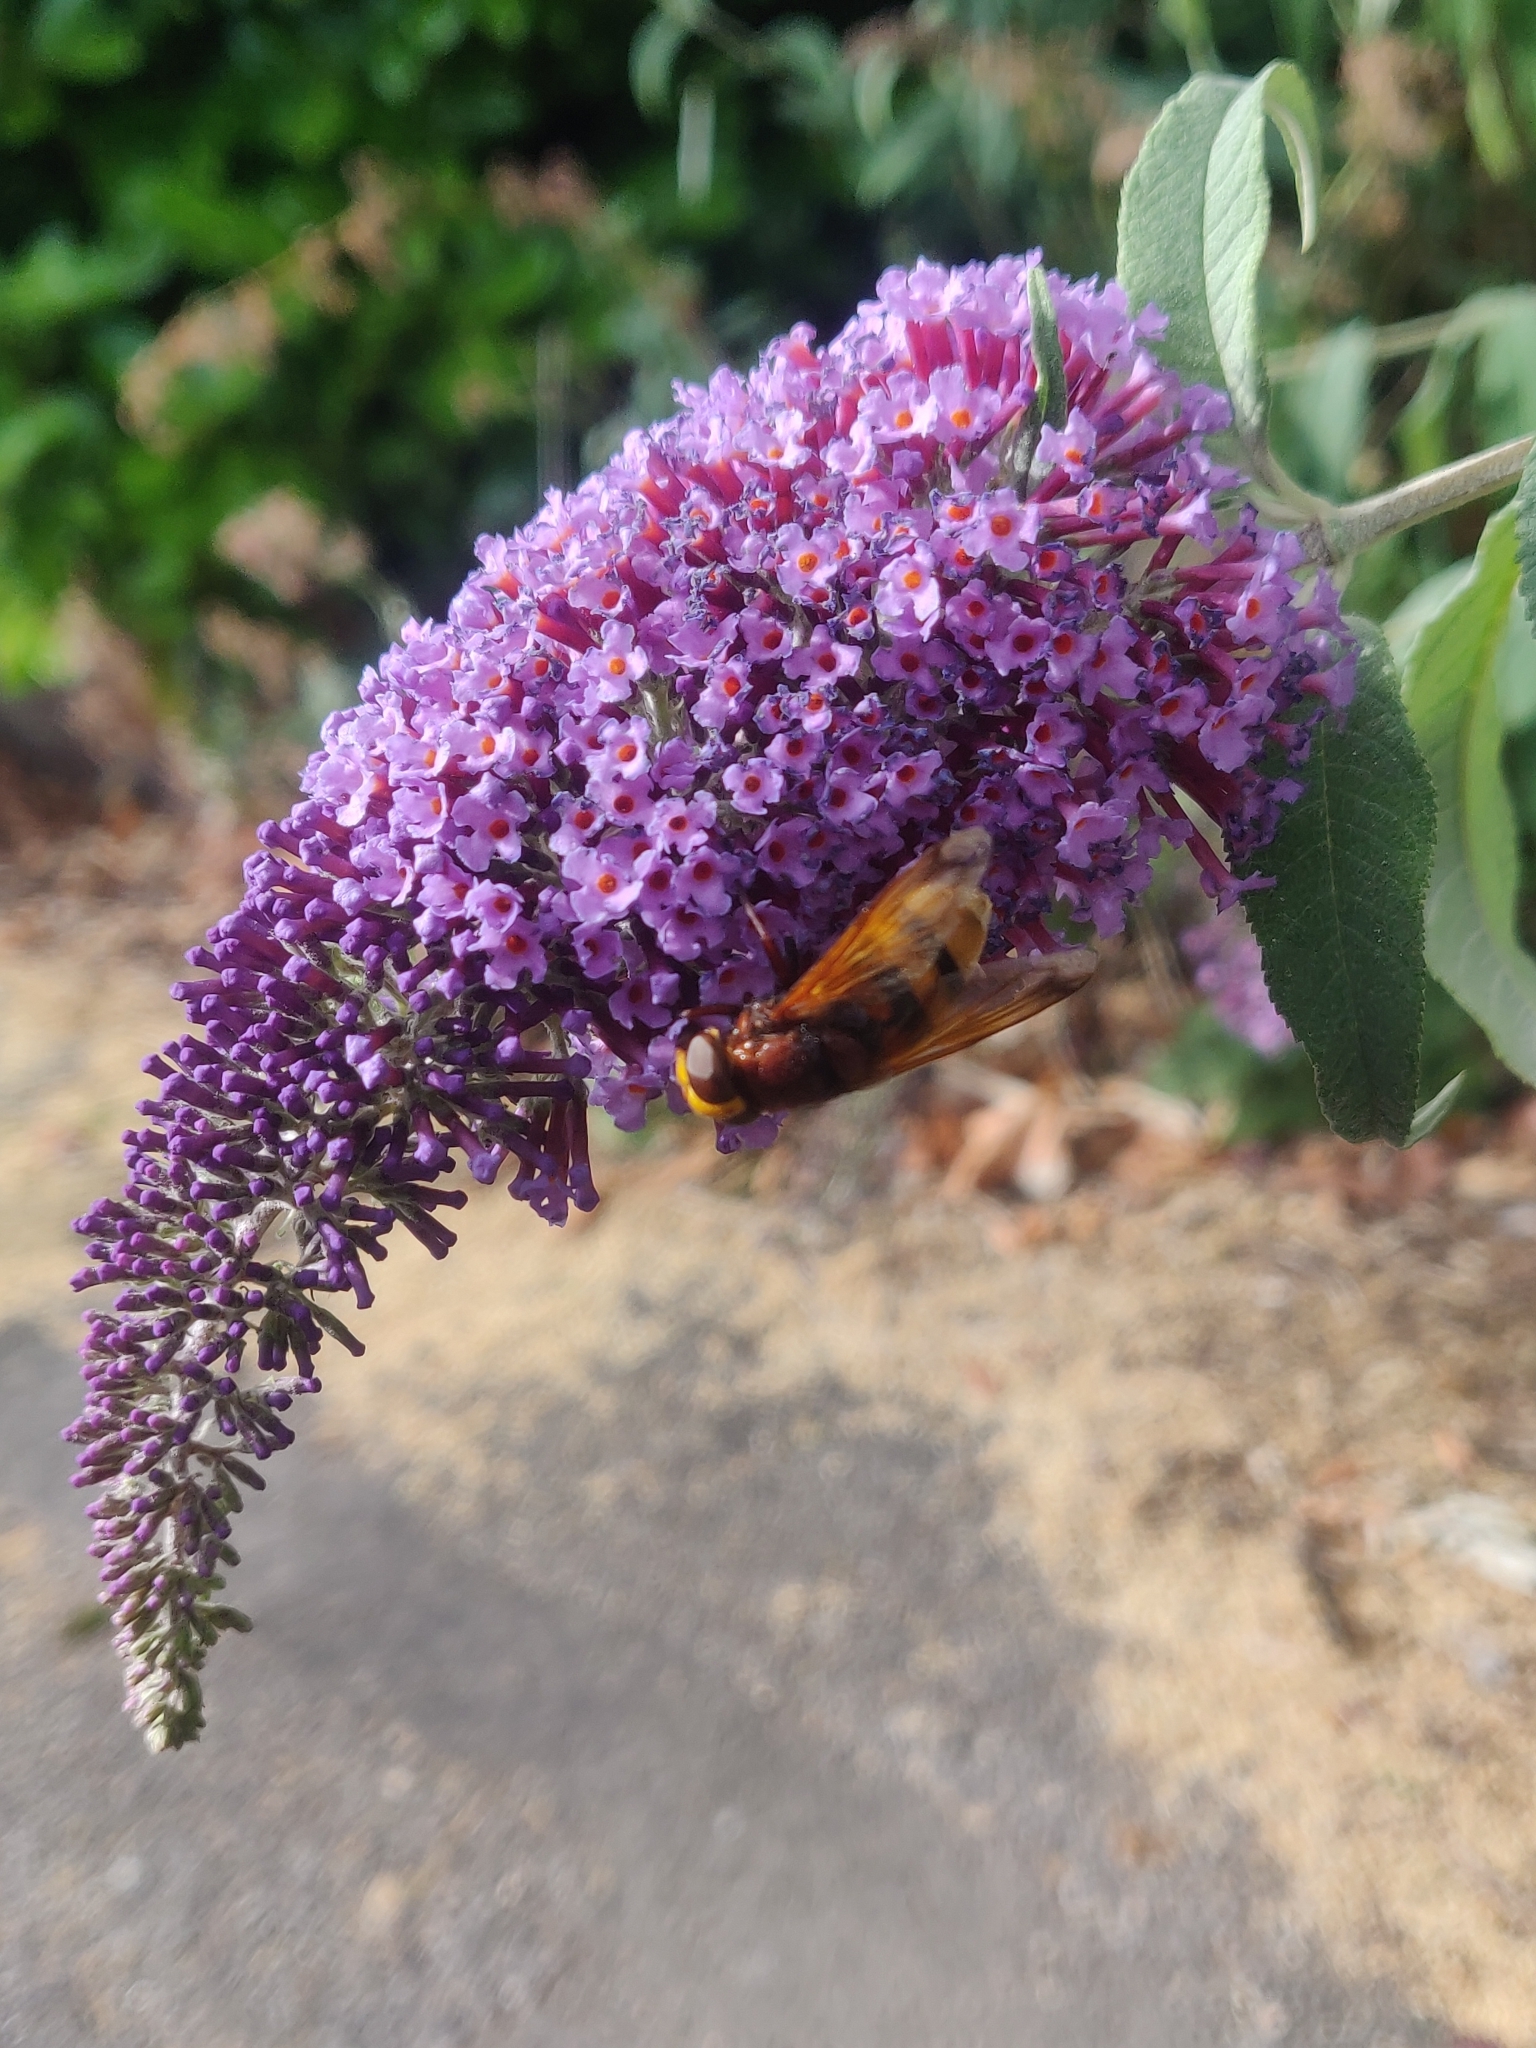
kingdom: Animalia
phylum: Arthropoda
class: Insecta
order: Diptera
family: Syrphidae
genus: Volucella
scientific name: Volucella zonaria
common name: Hornet hoverfly
